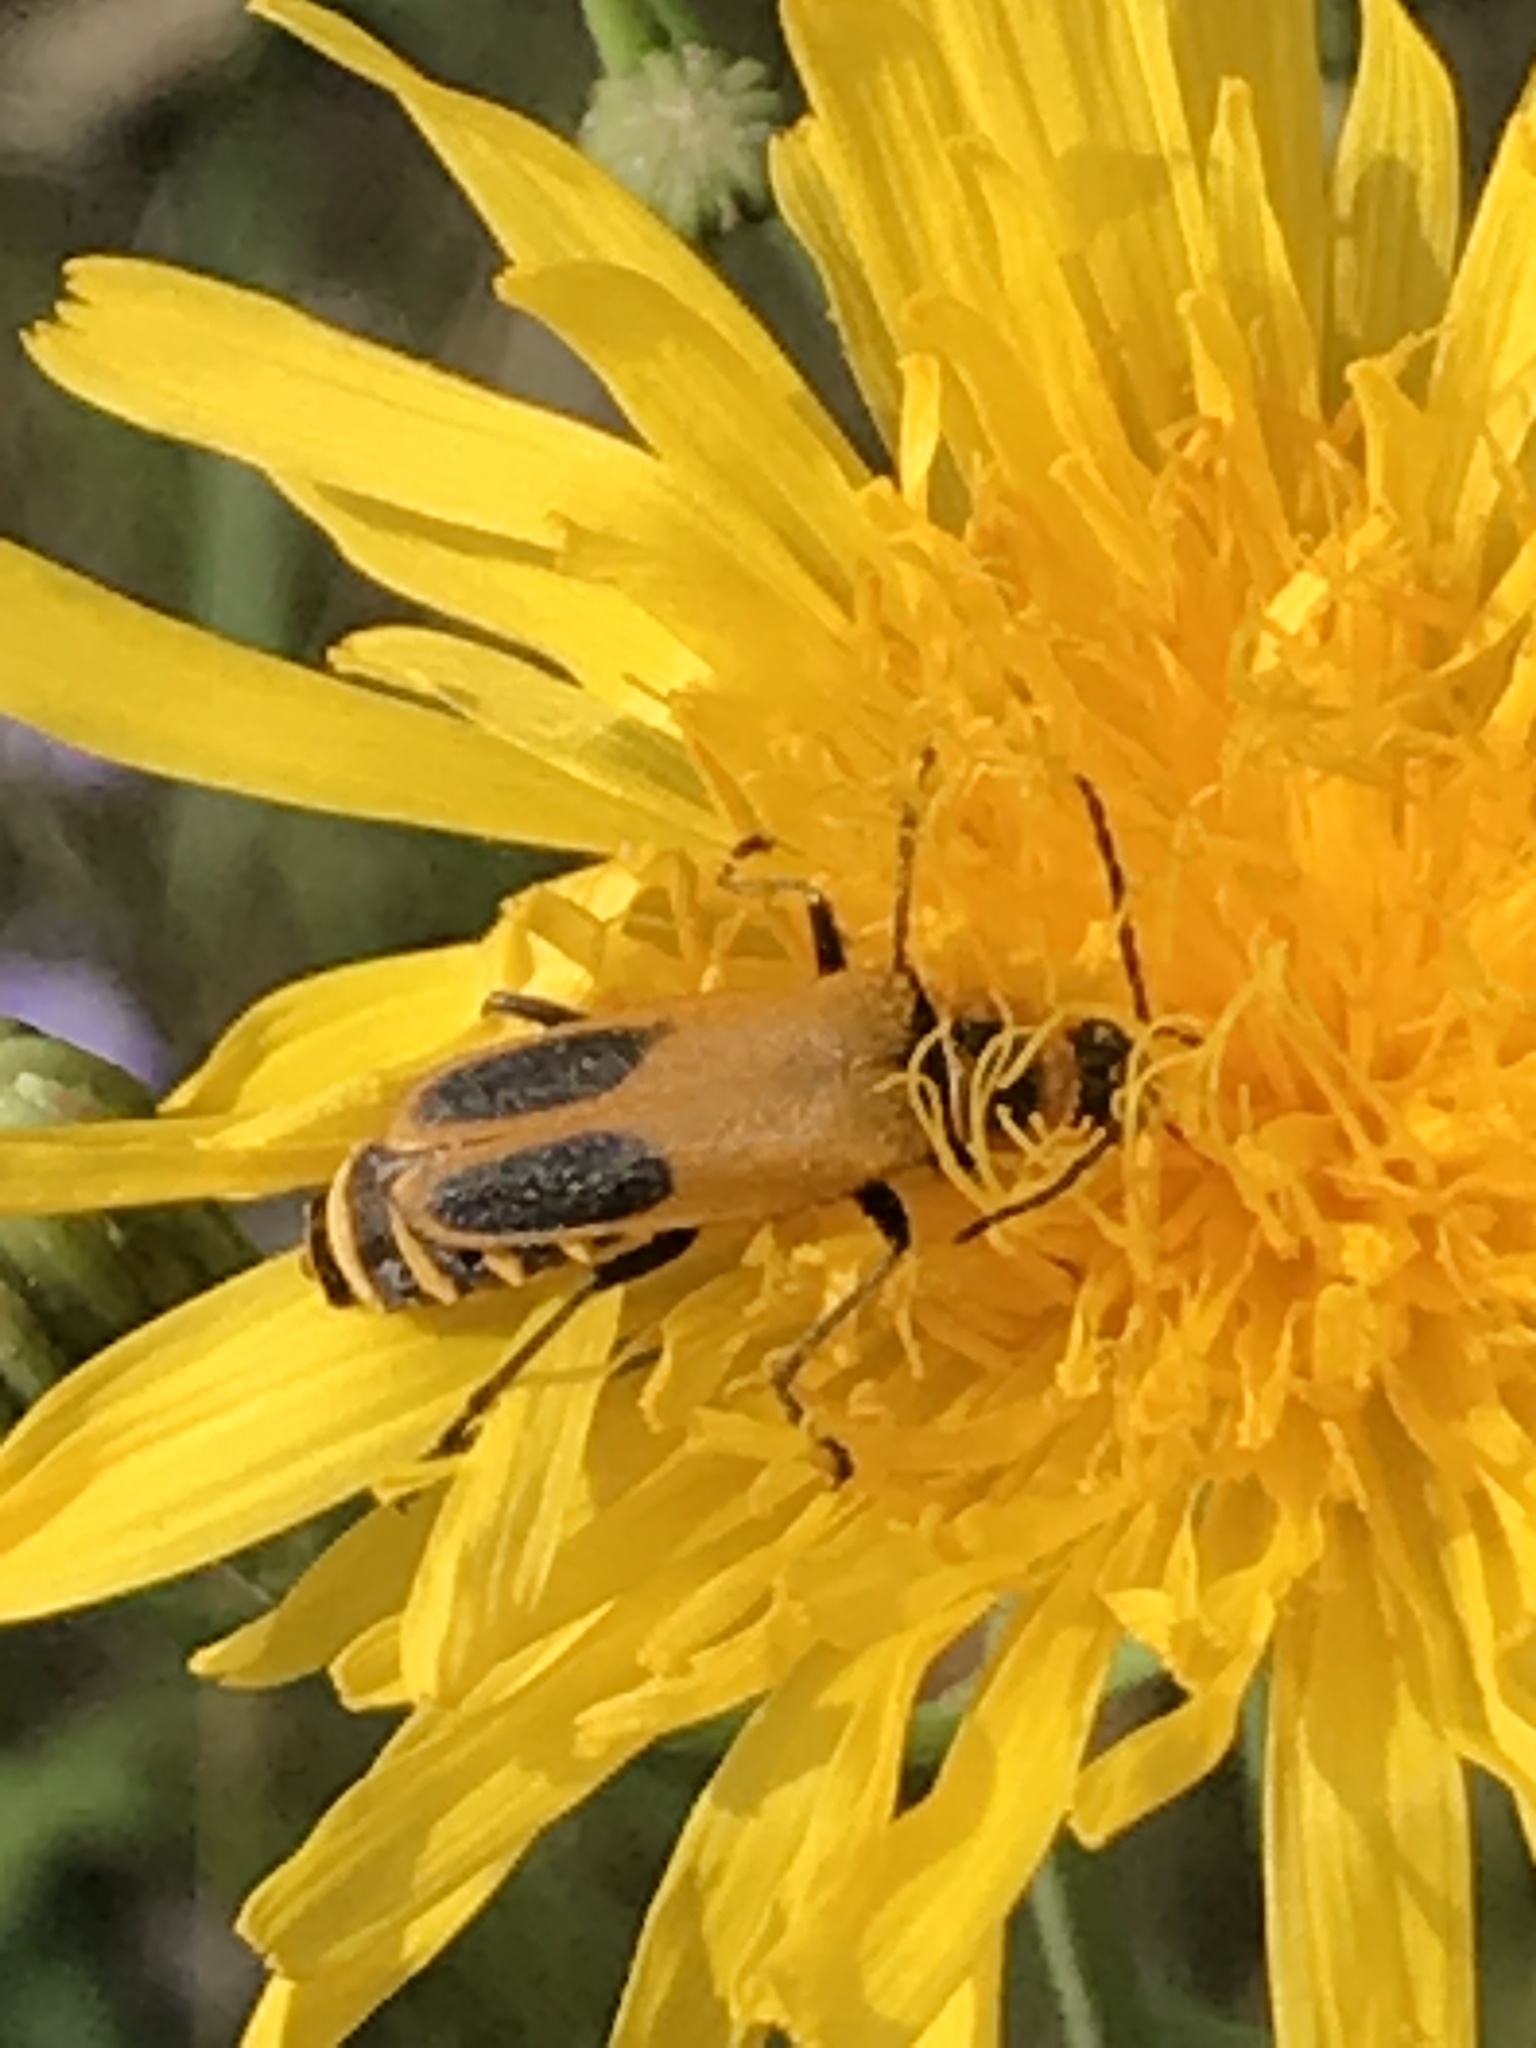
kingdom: Animalia
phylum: Arthropoda
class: Insecta
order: Coleoptera
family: Cantharidae
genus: Chauliognathus
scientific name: Chauliognathus pensylvanicus
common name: Goldenrod soldier beetle
